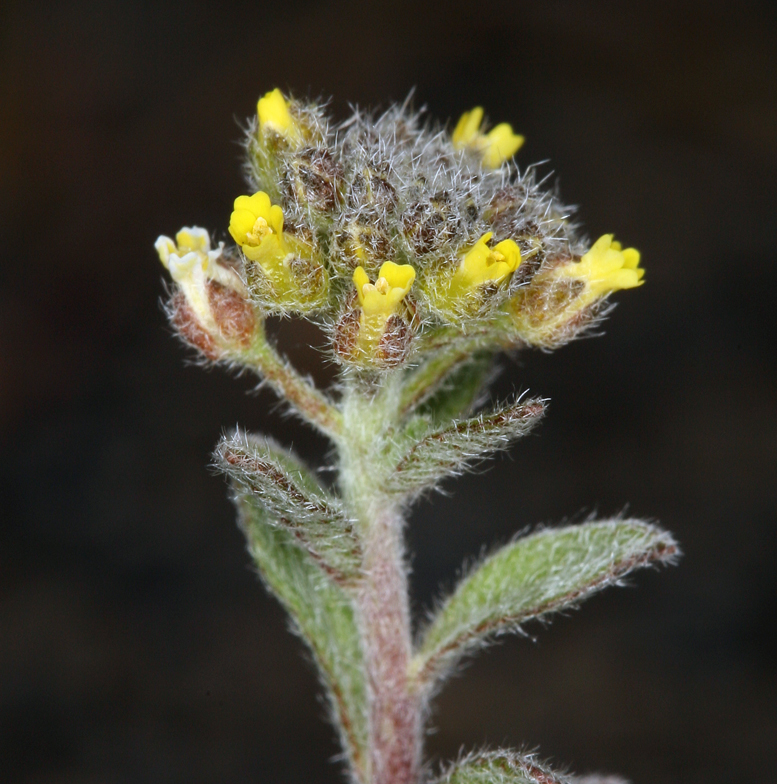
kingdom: Plantae
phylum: Tracheophyta
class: Magnoliopsida
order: Brassicales
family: Brassicaceae
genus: Alyssum
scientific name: Alyssum simplex
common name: Alyssum
